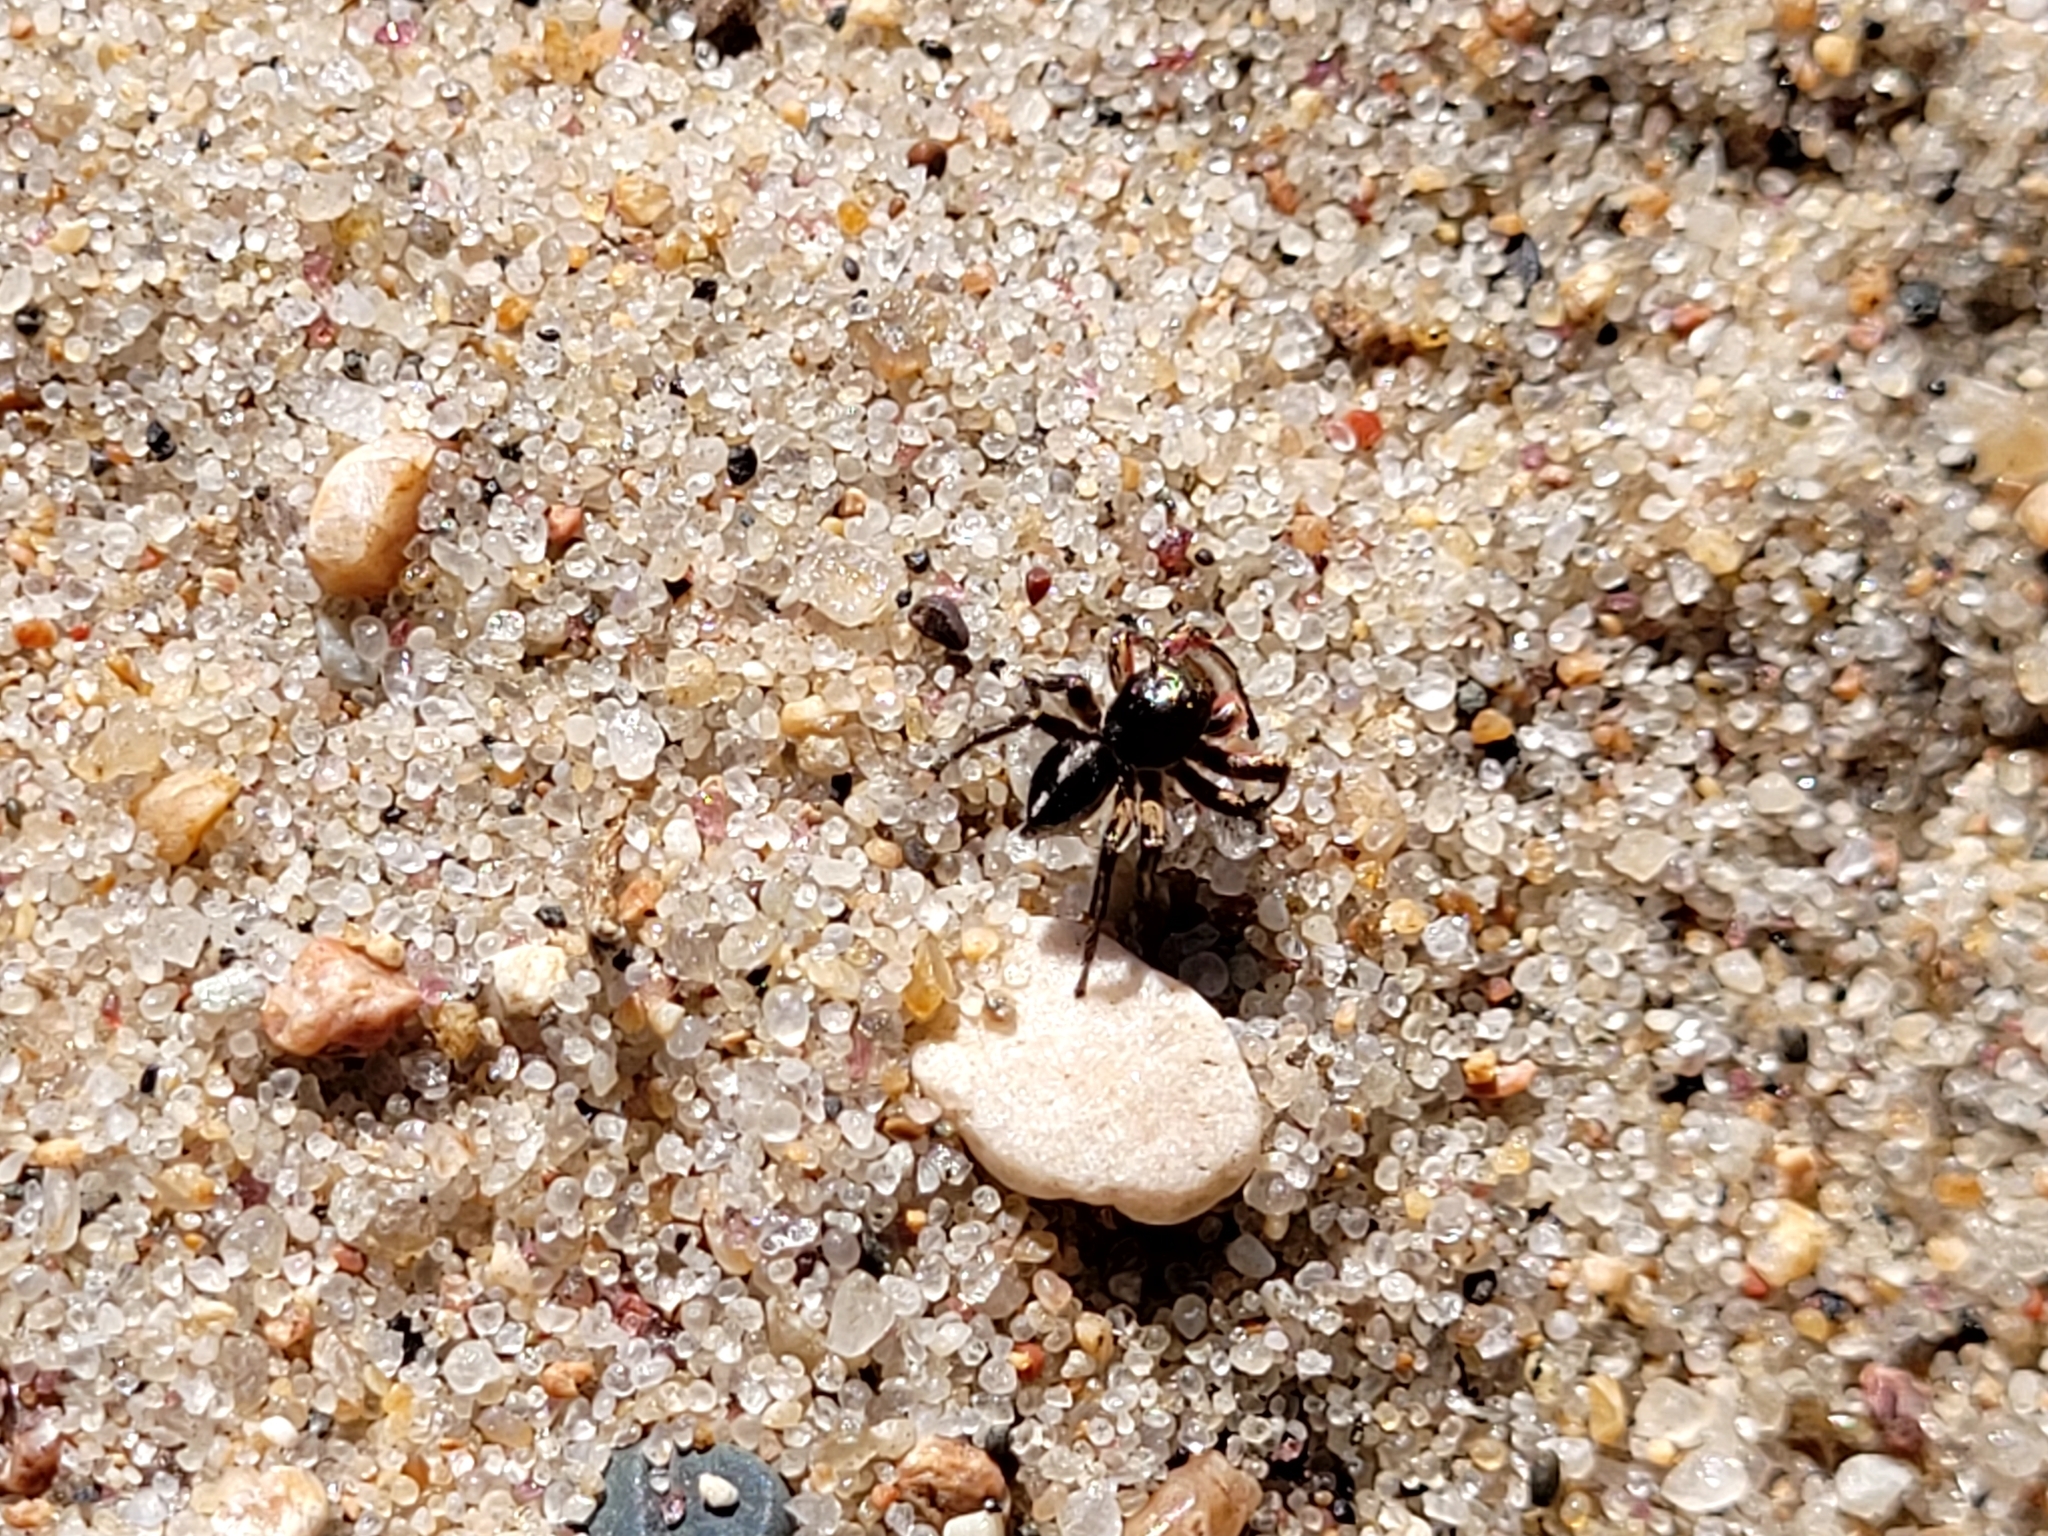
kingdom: Animalia
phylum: Arthropoda
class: Arachnida
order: Araneae
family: Salticidae
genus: Habronattus
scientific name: Habronattus americanus
